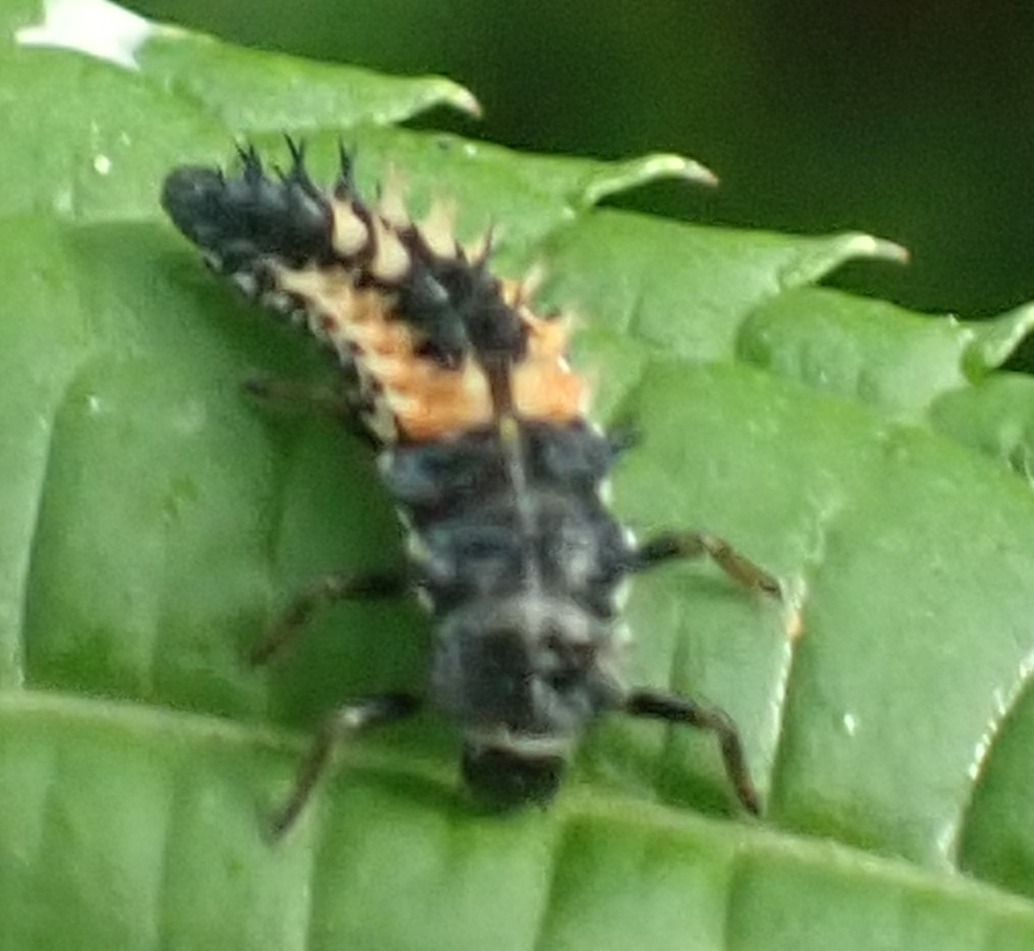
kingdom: Animalia
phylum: Arthropoda
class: Insecta
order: Coleoptera
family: Coccinellidae
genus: Harmonia
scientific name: Harmonia axyridis
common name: Harlequin ladybird
